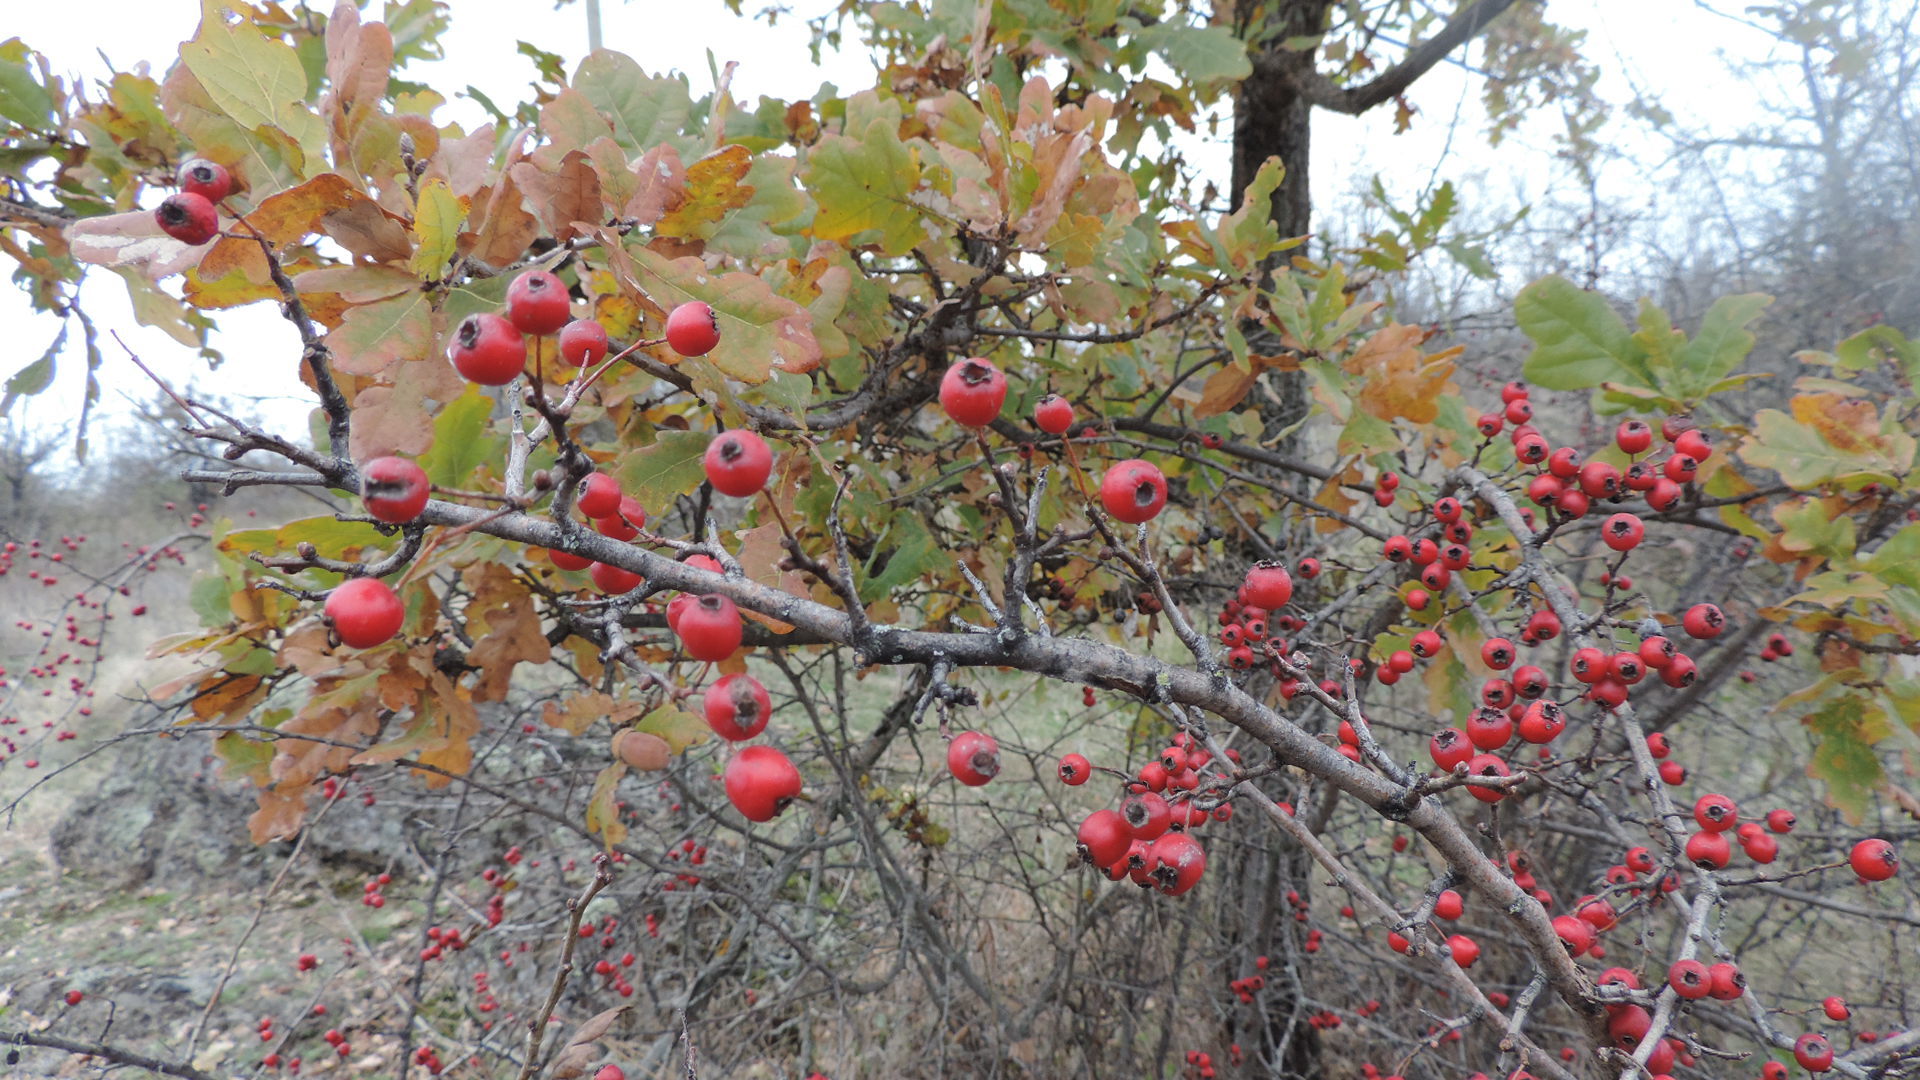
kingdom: Plantae
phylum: Tracheophyta
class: Magnoliopsida
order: Rosales
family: Rosaceae
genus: Crataegus
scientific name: Crataegus monogyna
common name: Hawthorn
